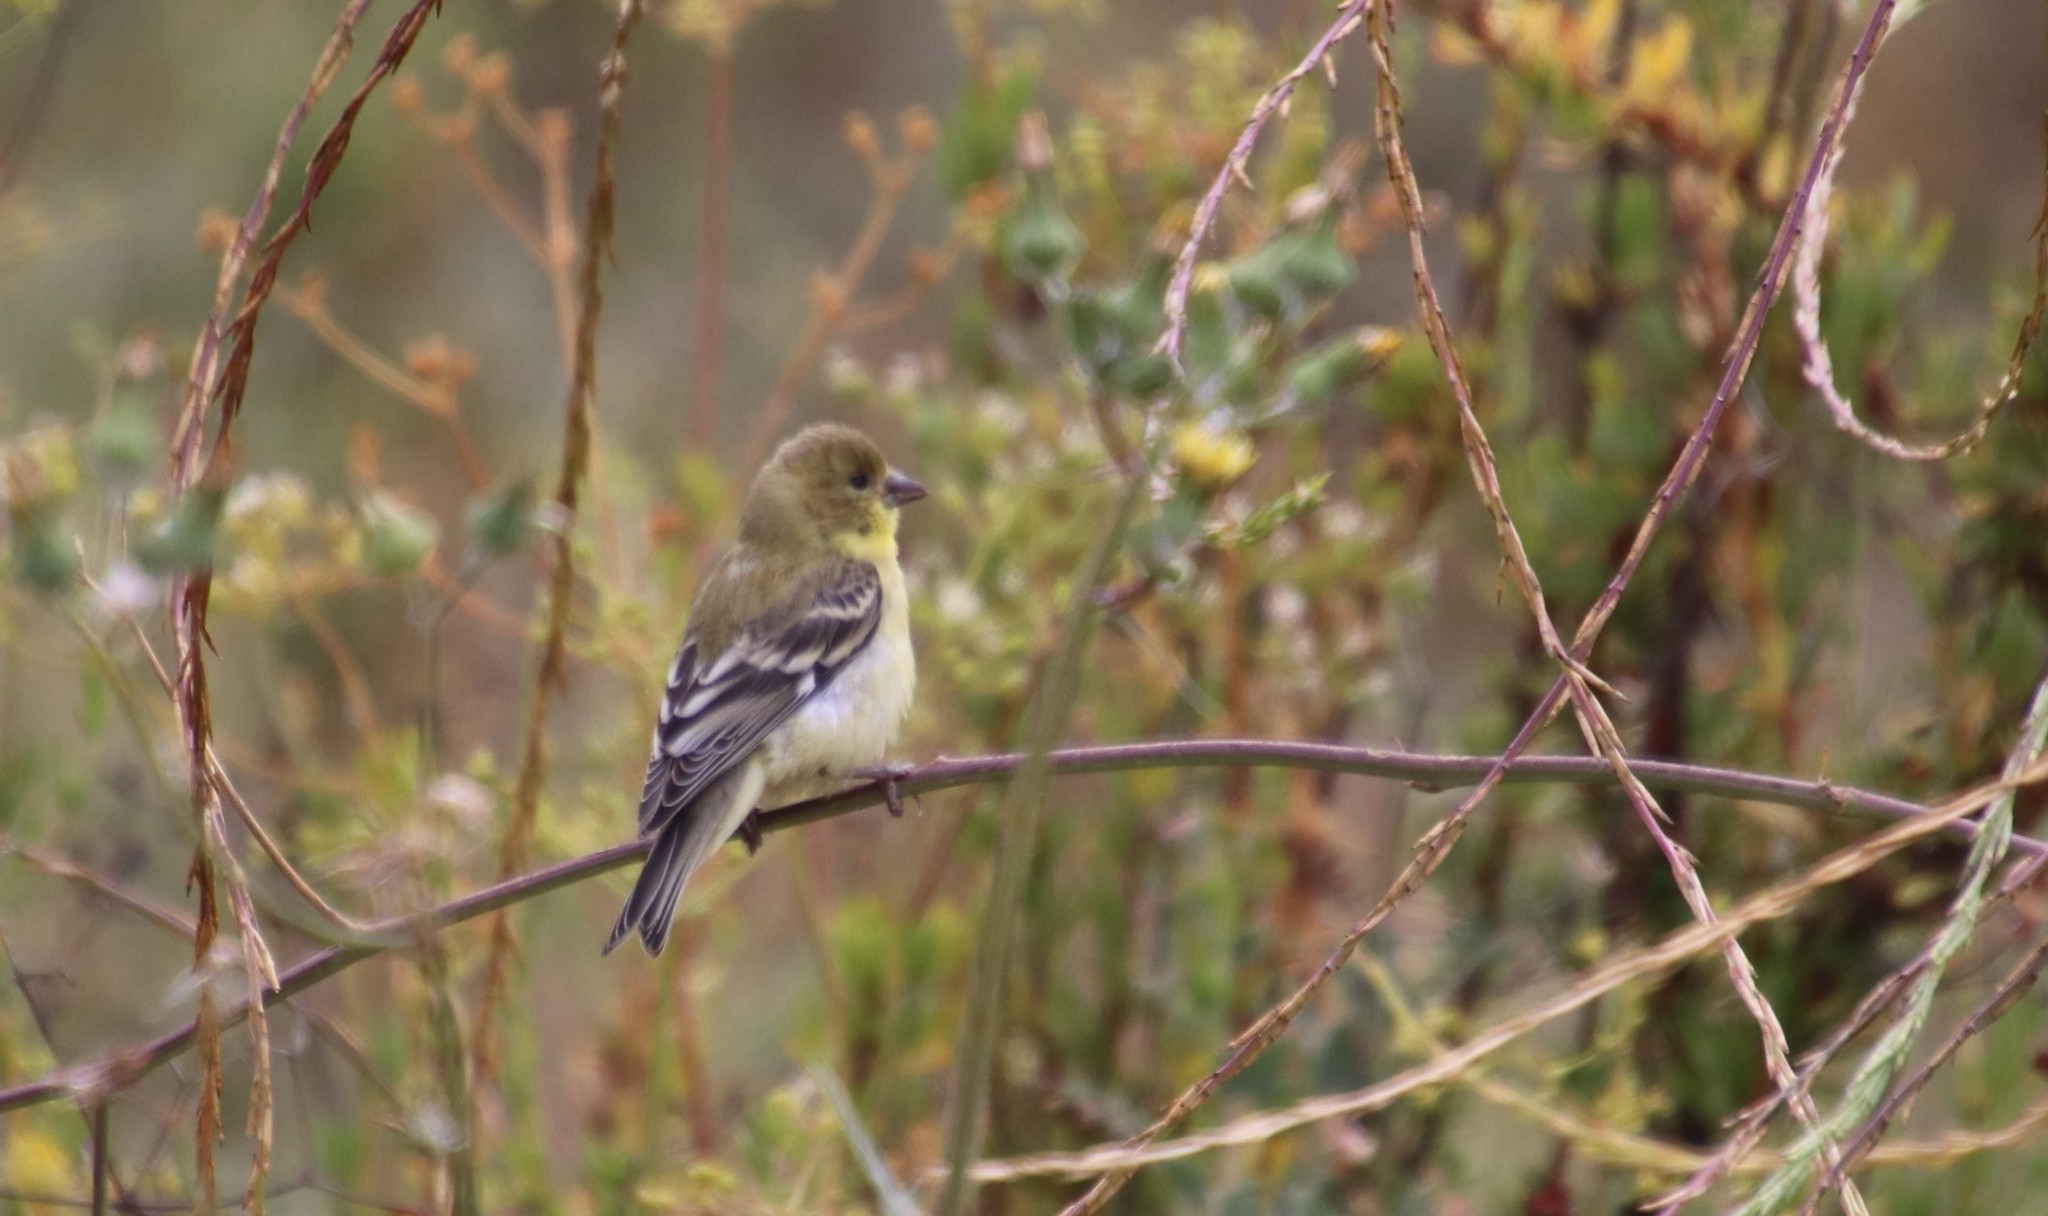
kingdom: Animalia
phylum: Chordata
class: Aves
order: Passeriformes
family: Fringillidae
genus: Spinus
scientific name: Spinus psaltria
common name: Lesser goldfinch
